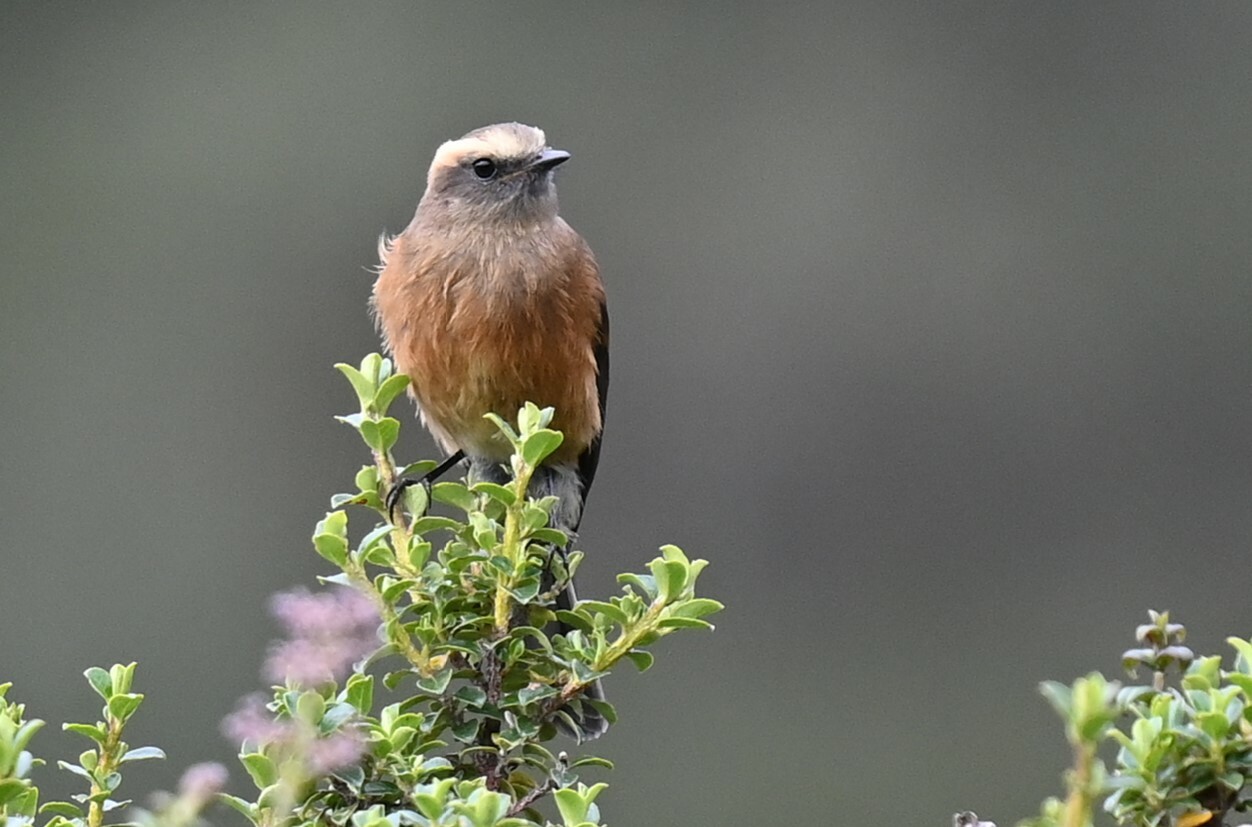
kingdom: Animalia
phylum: Chordata
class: Aves
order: Passeriformes
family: Tyrannidae
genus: Ochthoeca
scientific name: Ochthoeca fumicolor
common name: Brown-backed chat-tyrant
